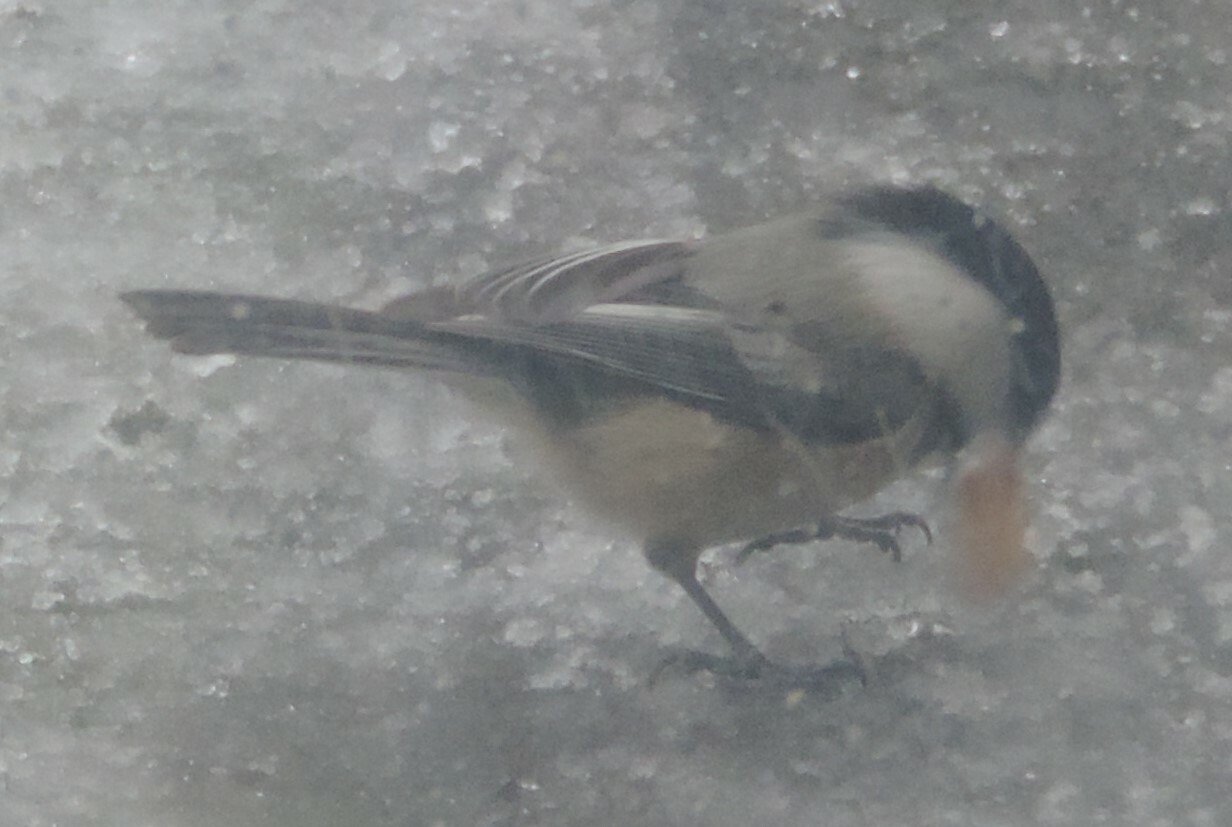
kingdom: Animalia
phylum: Chordata
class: Aves
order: Passeriformes
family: Paridae
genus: Poecile
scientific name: Poecile atricapillus
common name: Black-capped chickadee
